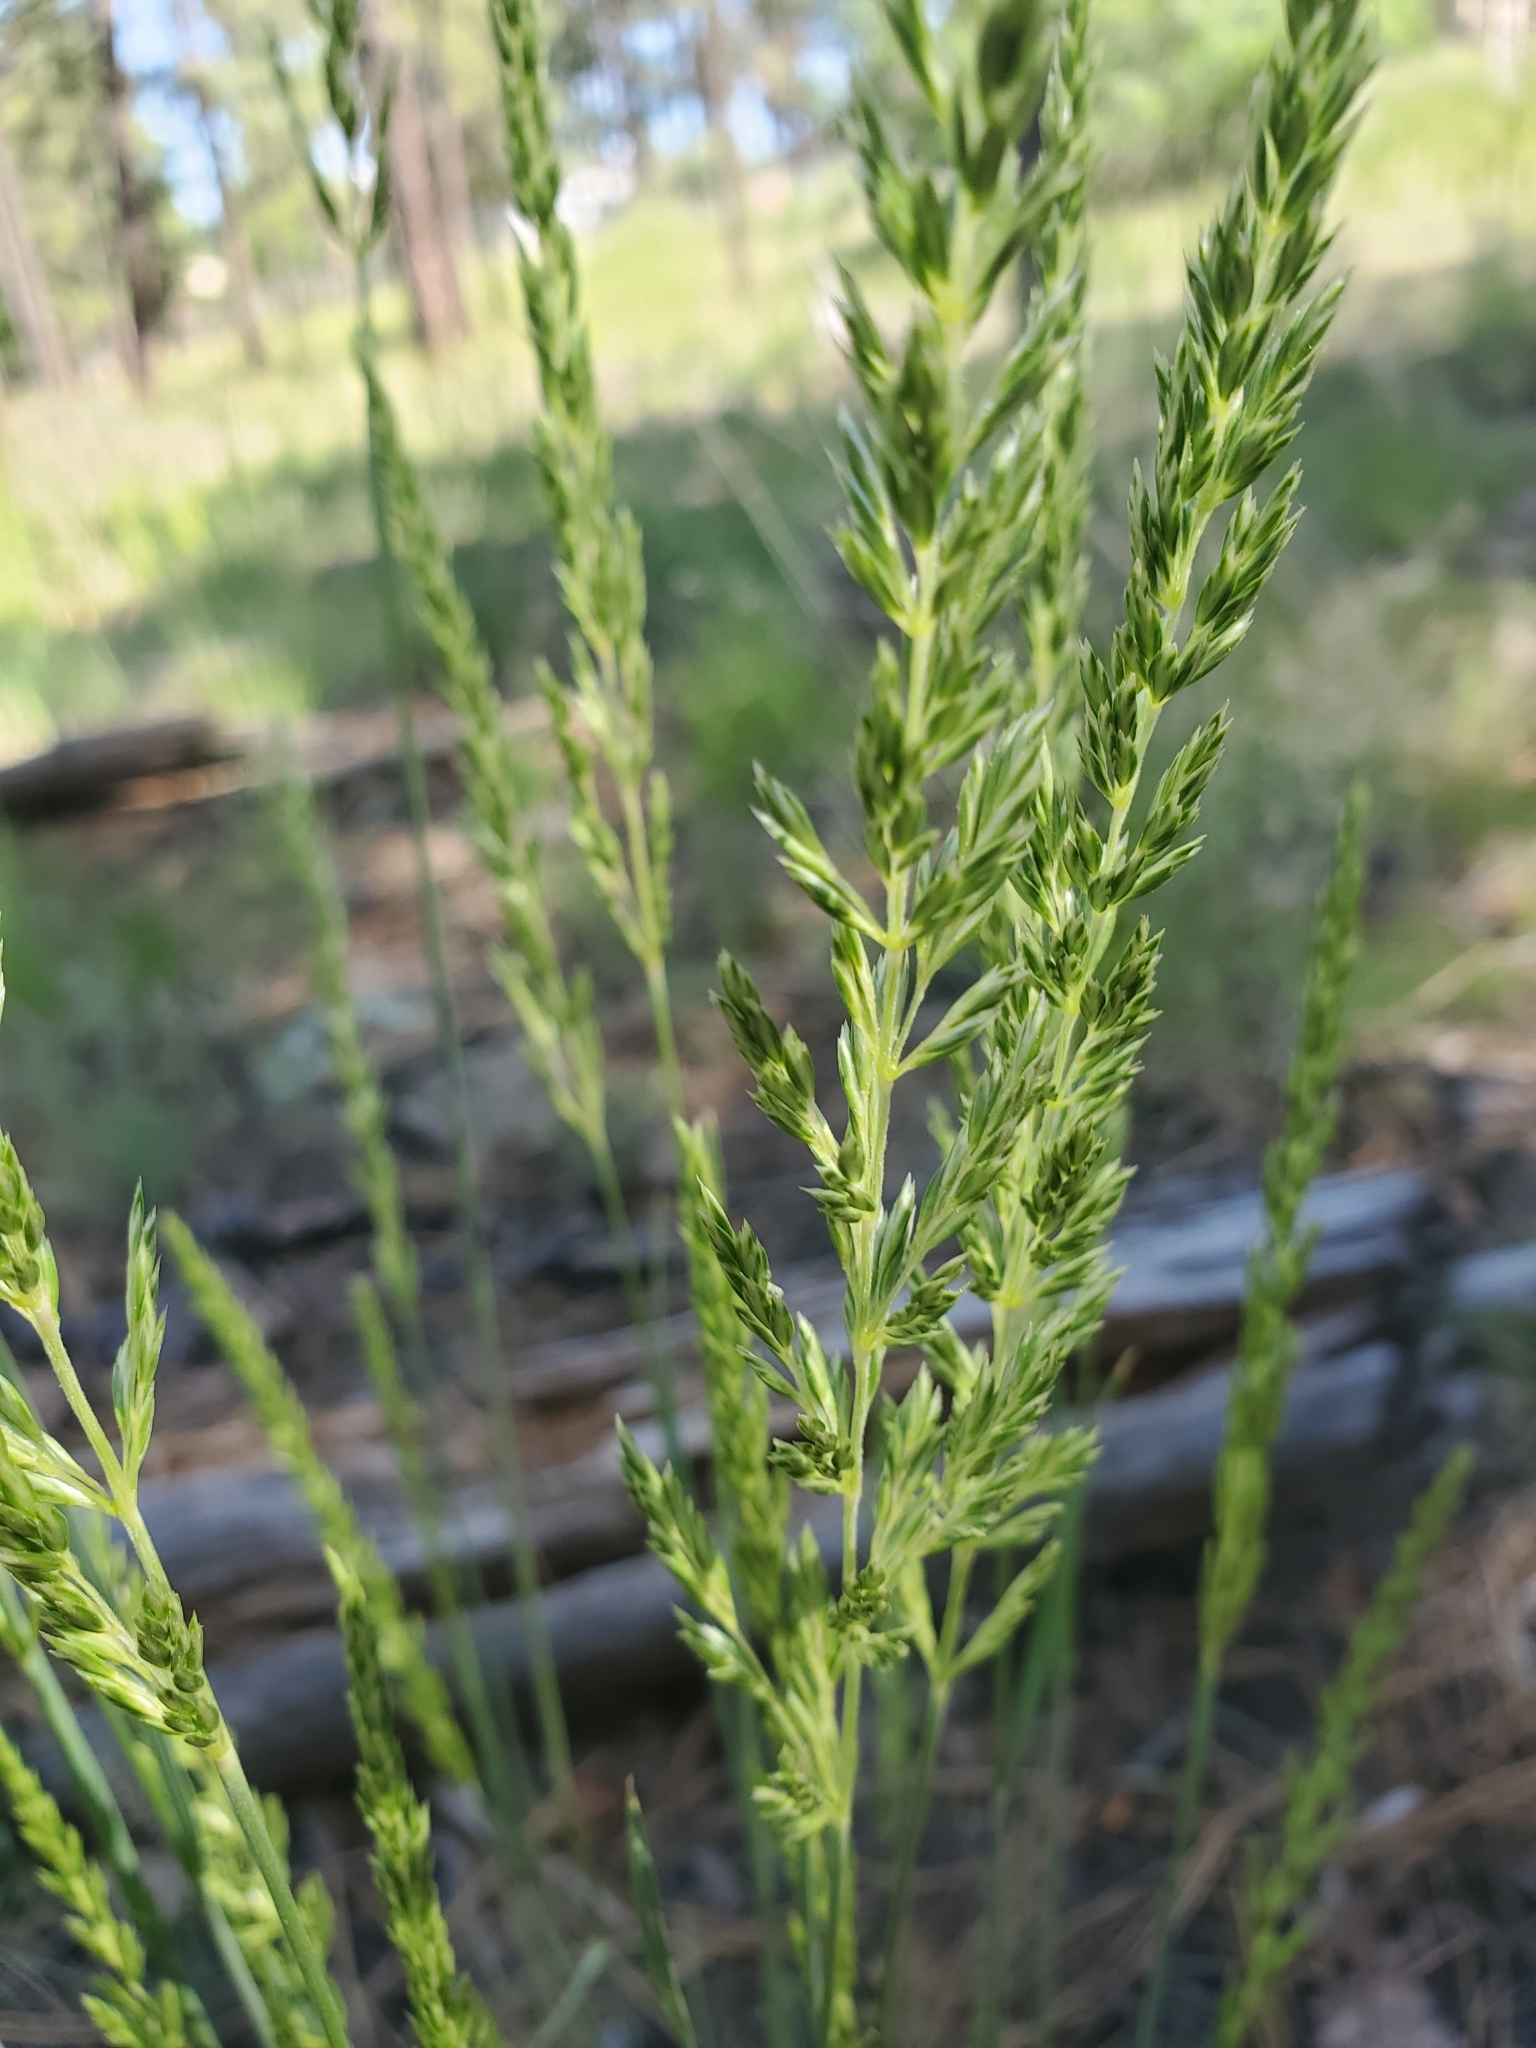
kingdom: Plantae
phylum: Tracheophyta
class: Liliopsida
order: Poales
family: Poaceae
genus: Koeleria
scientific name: Koeleria macrantha
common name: Crested hair-grass
